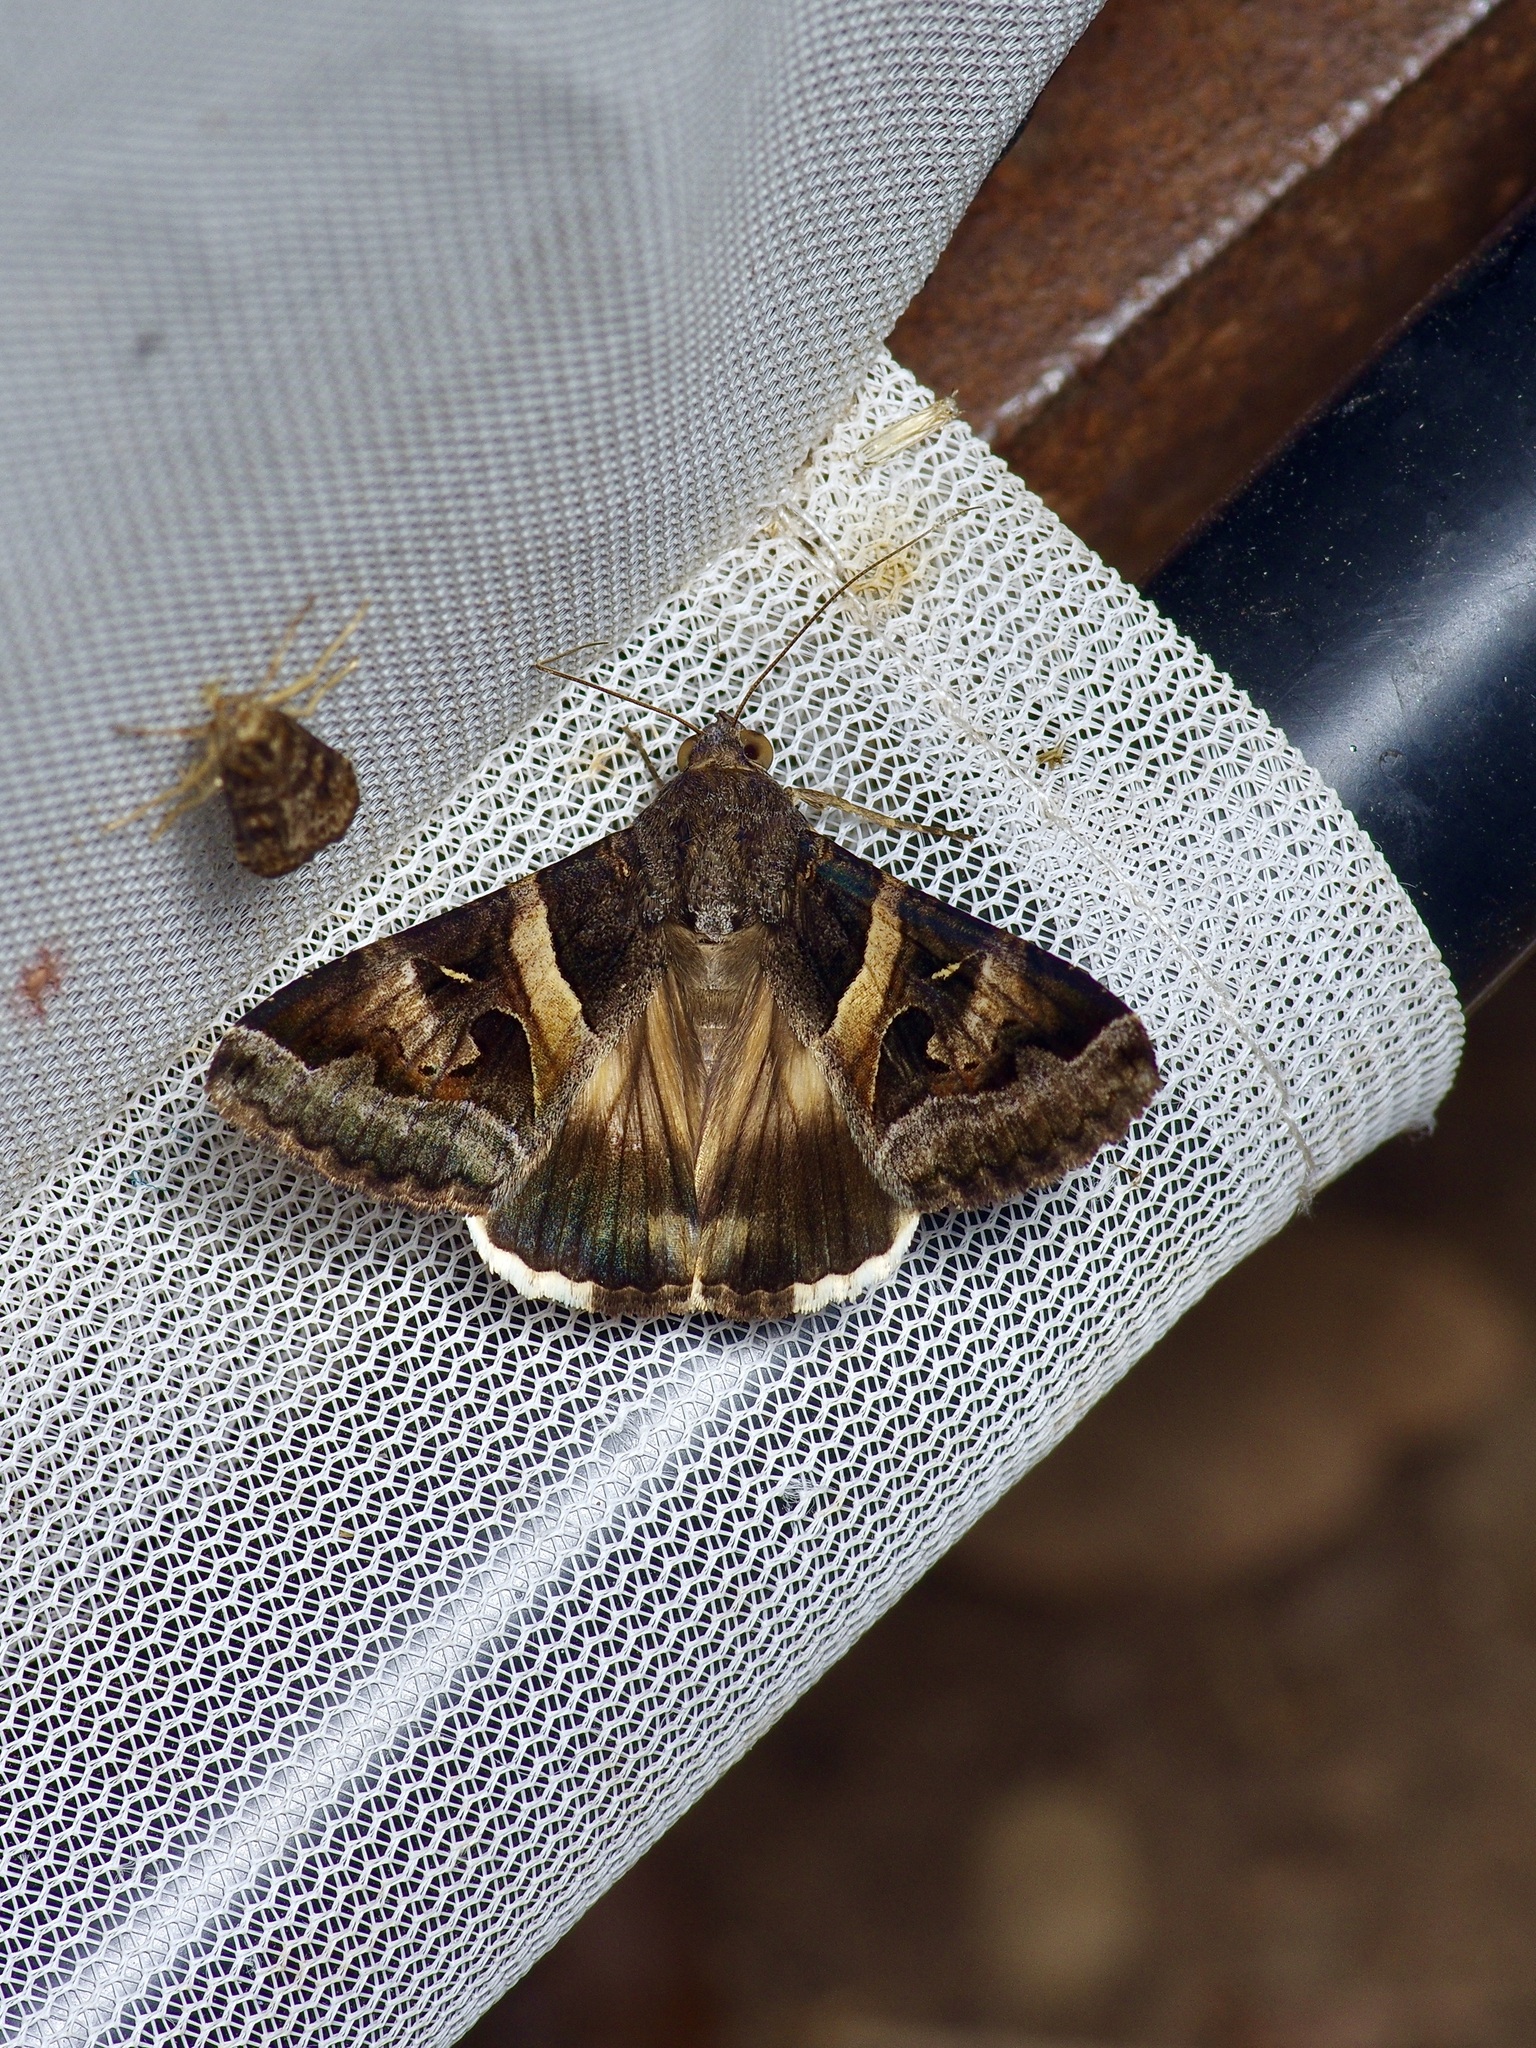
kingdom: Animalia
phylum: Arthropoda
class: Insecta
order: Lepidoptera
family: Erebidae
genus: Melipotis
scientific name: Melipotis indomita
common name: Moth
